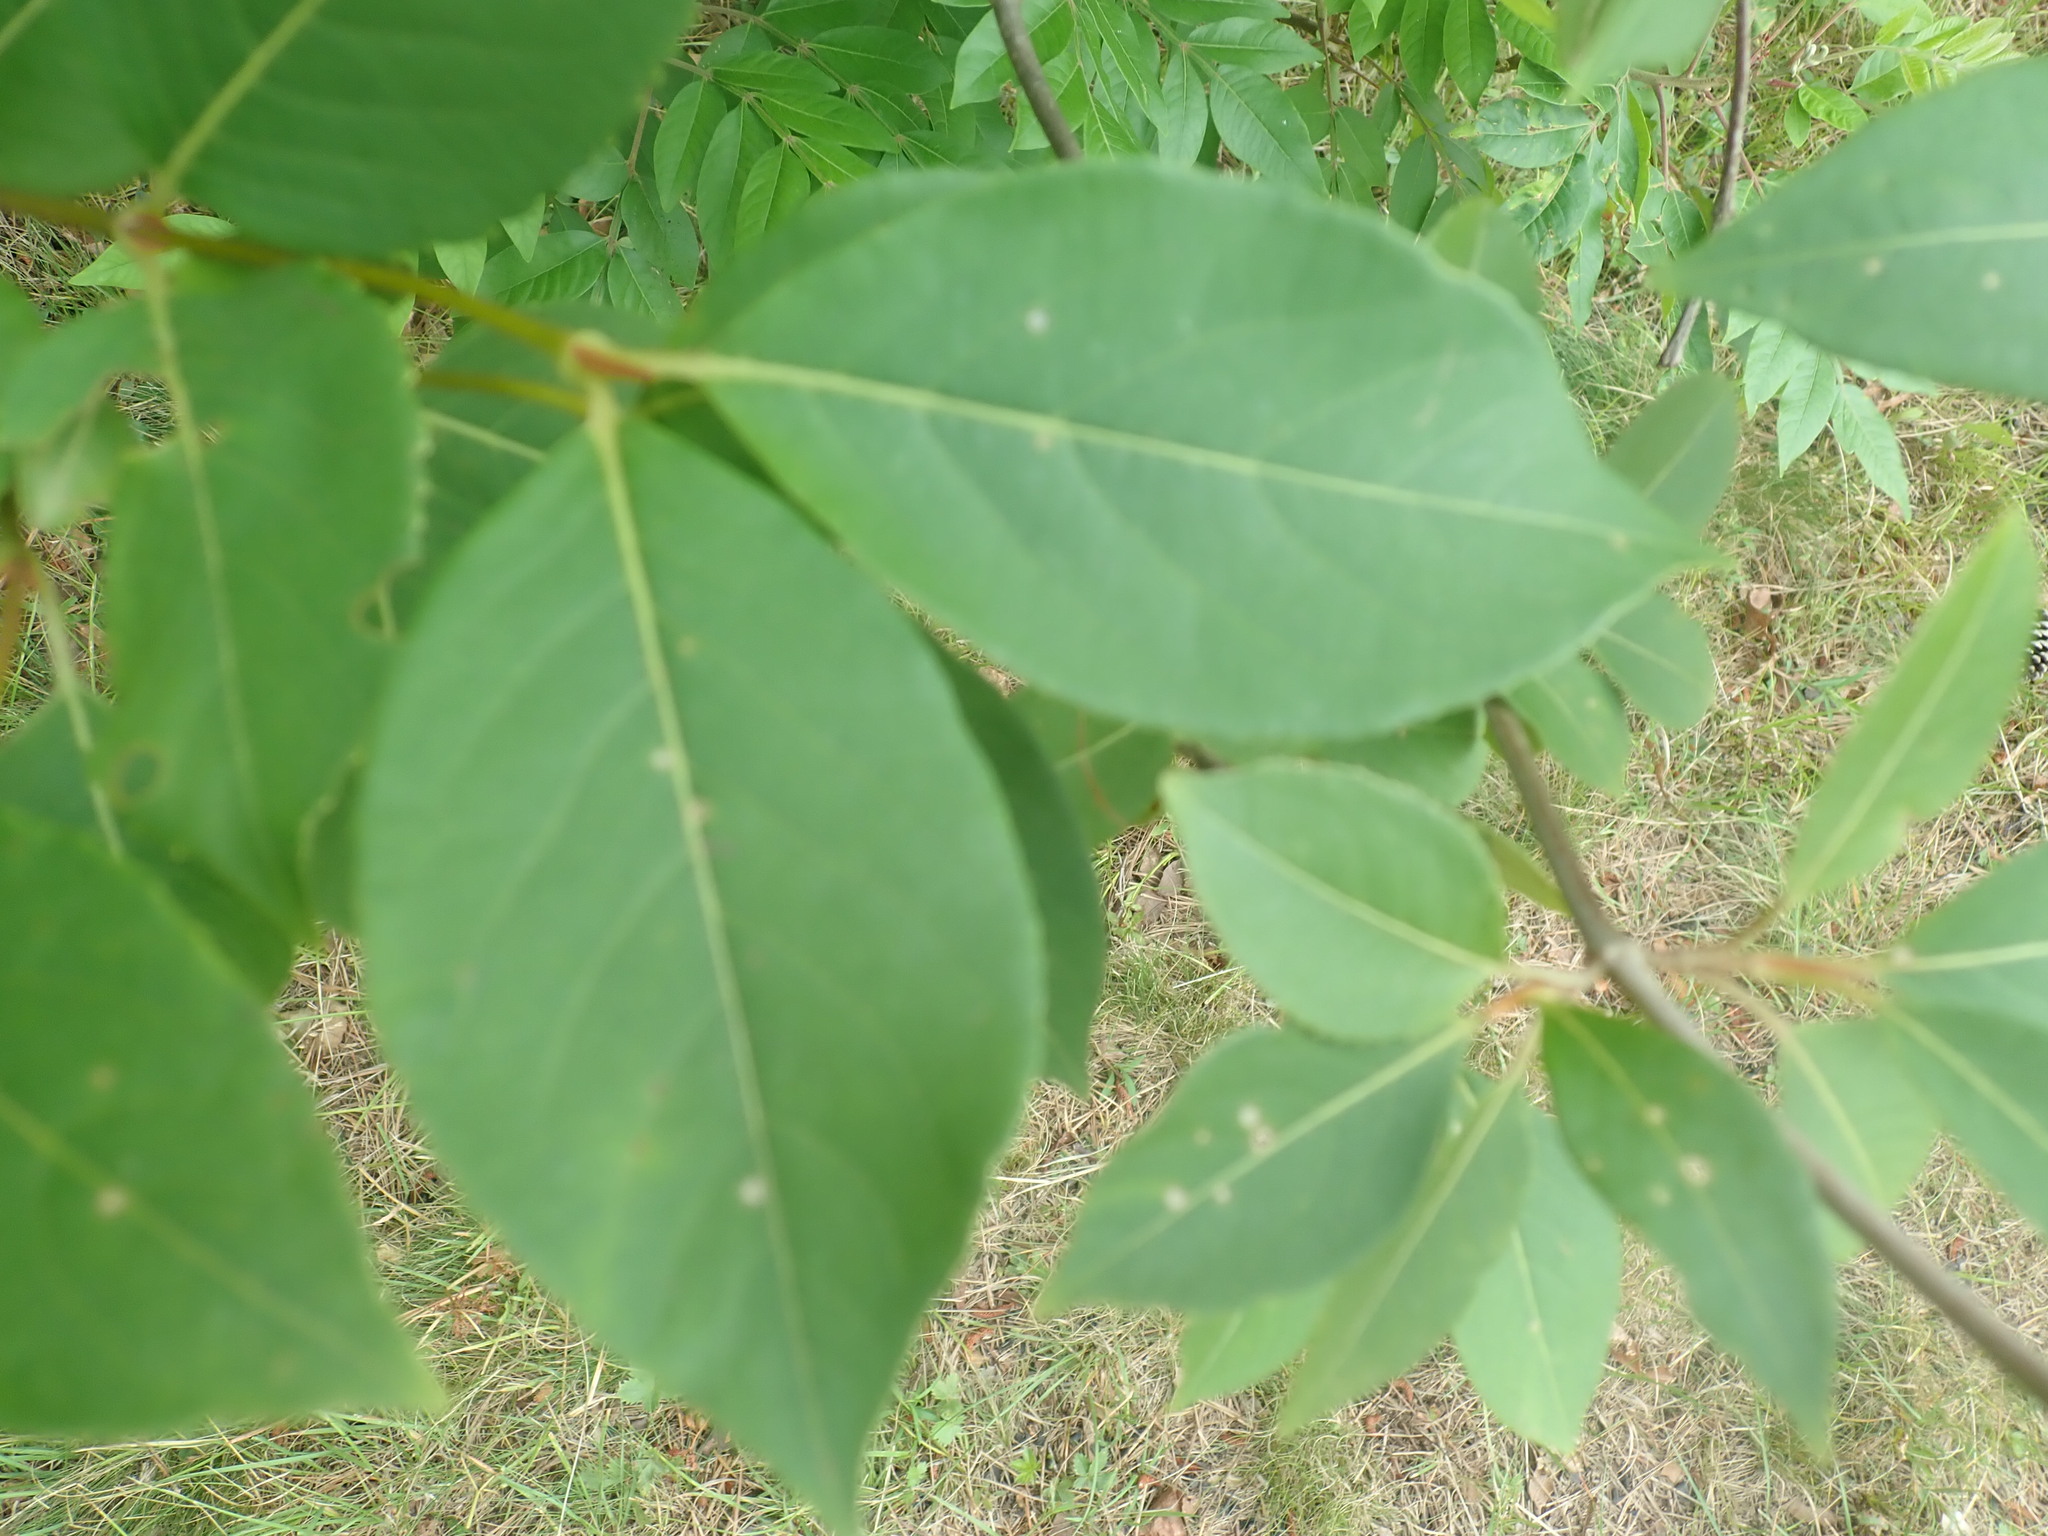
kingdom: Plantae
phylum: Tracheophyta
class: Magnoliopsida
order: Dipsacales
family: Viburnaceae
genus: Viburnum
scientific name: Viburnum cassinoides
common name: Swamp haw
